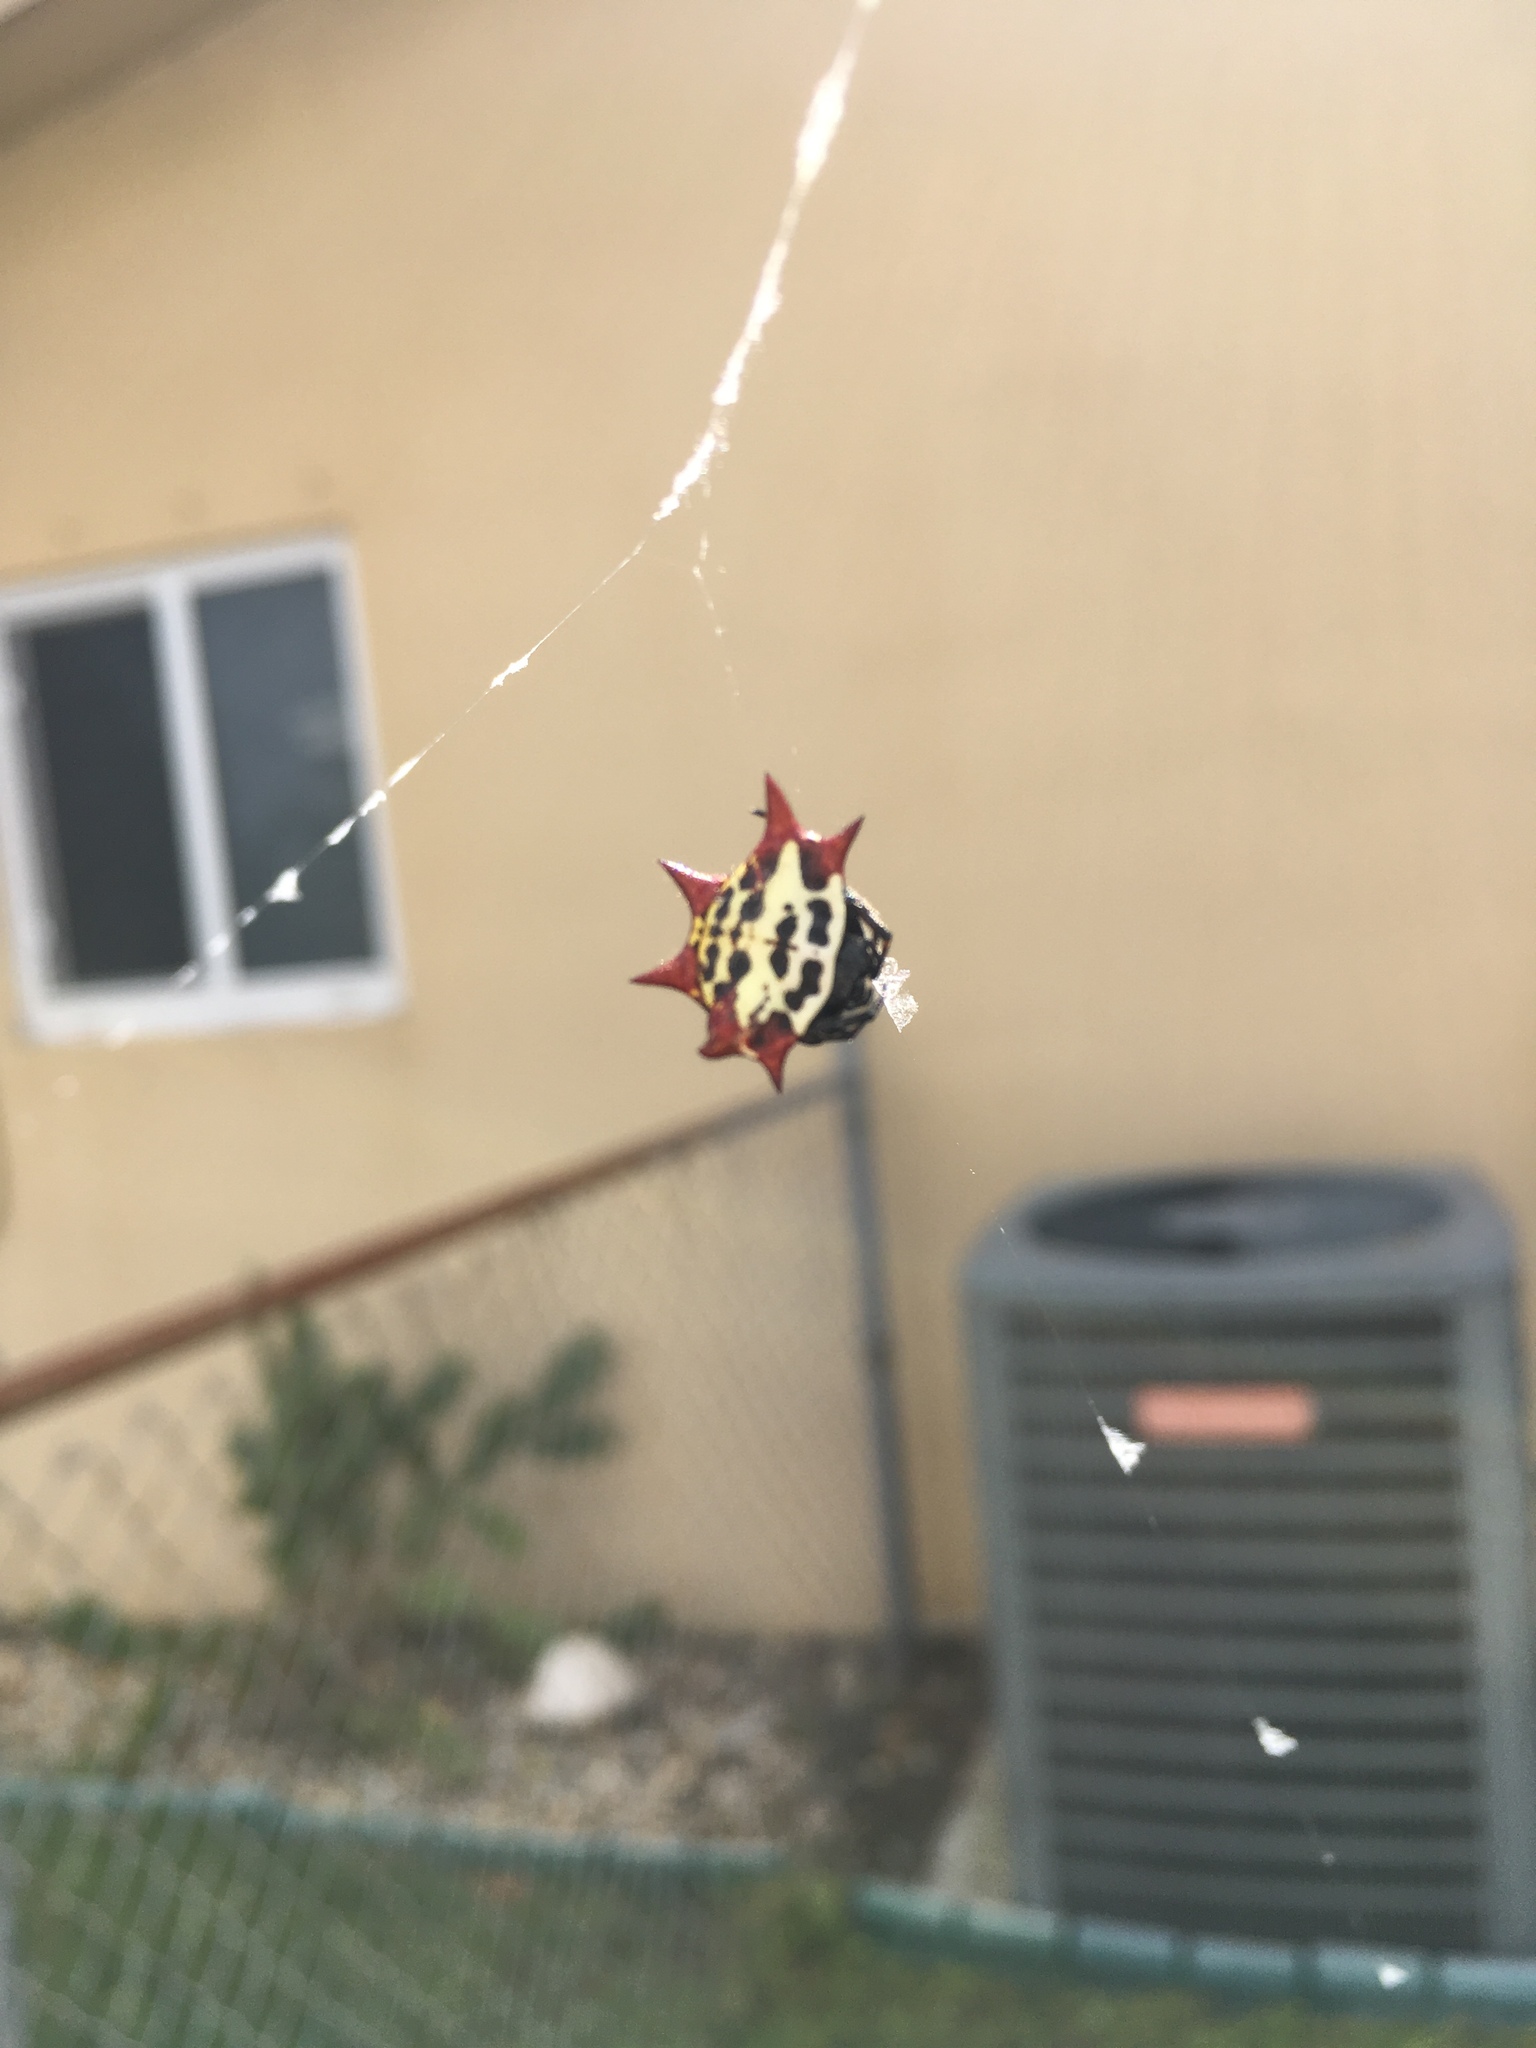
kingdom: Animalia
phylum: Arthropoda
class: Arachnida
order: Araneae
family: Araneidae
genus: Gasteracantha
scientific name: Gasteracantha cancriformis
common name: Orb weavers
